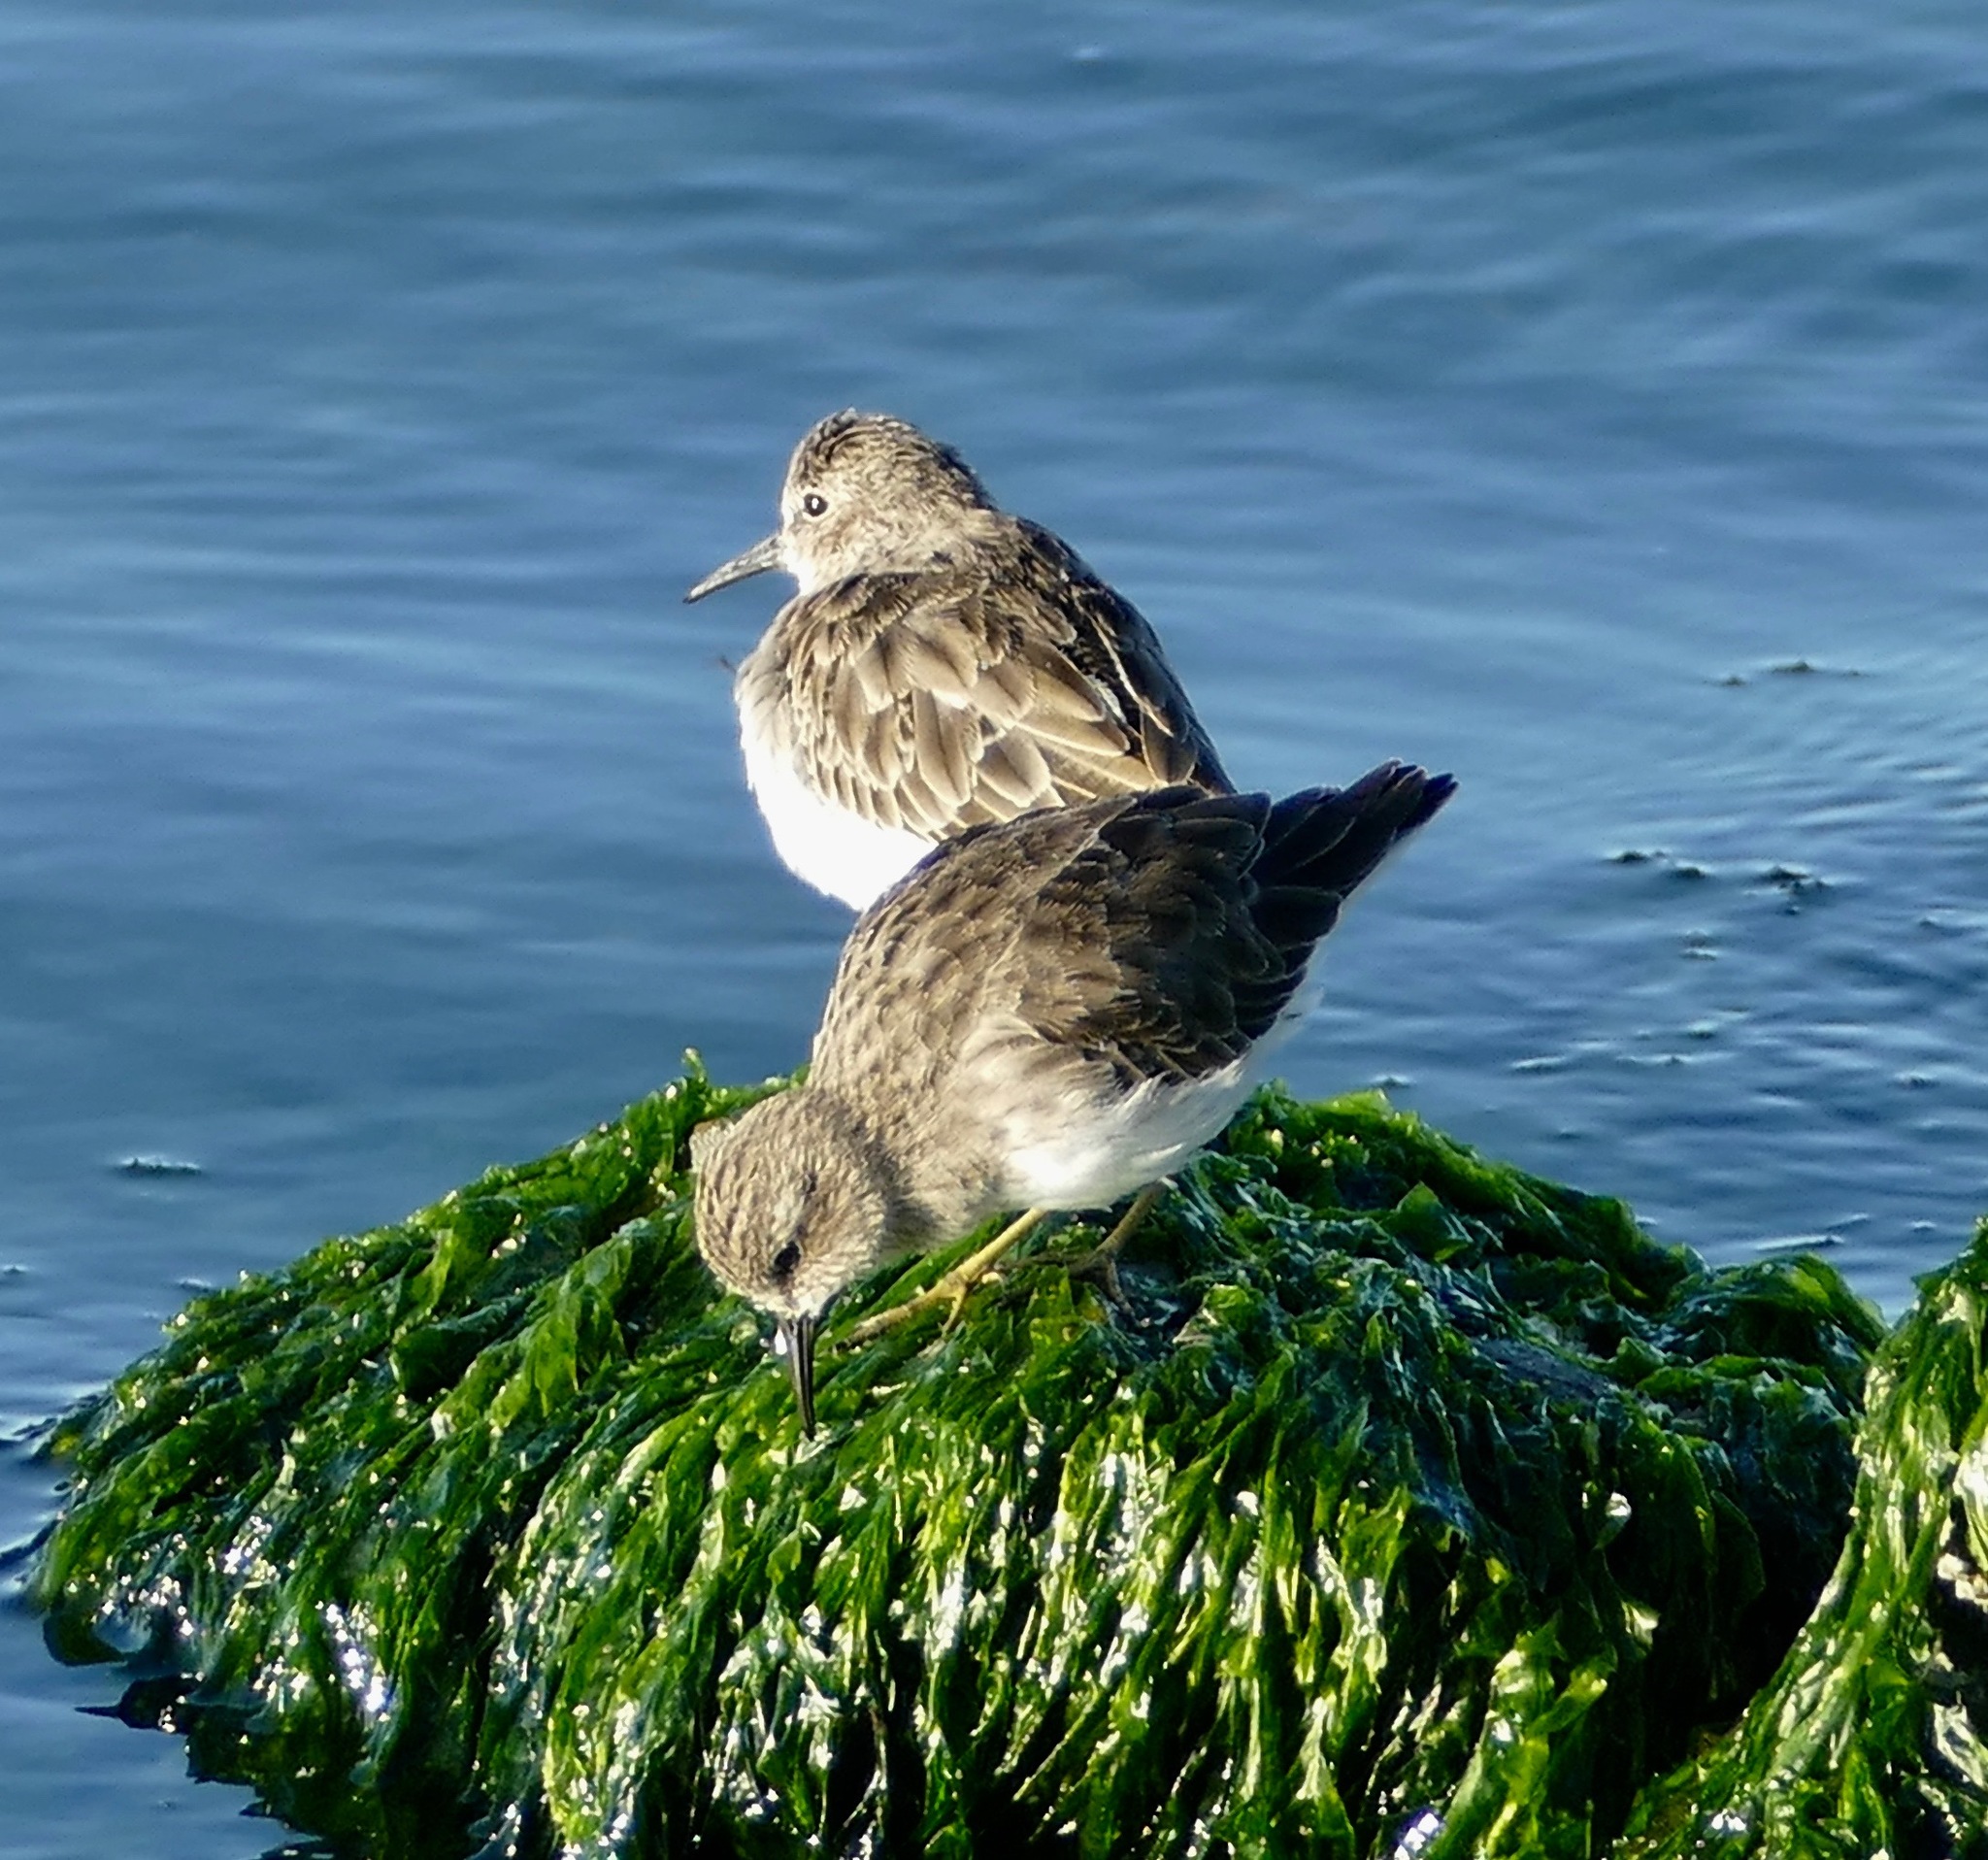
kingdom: Animalia
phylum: Chordata
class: Aves
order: Charadriiformes
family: Scolopacidae
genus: Calidris
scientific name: Calidris minutilla
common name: Least sandpiper
